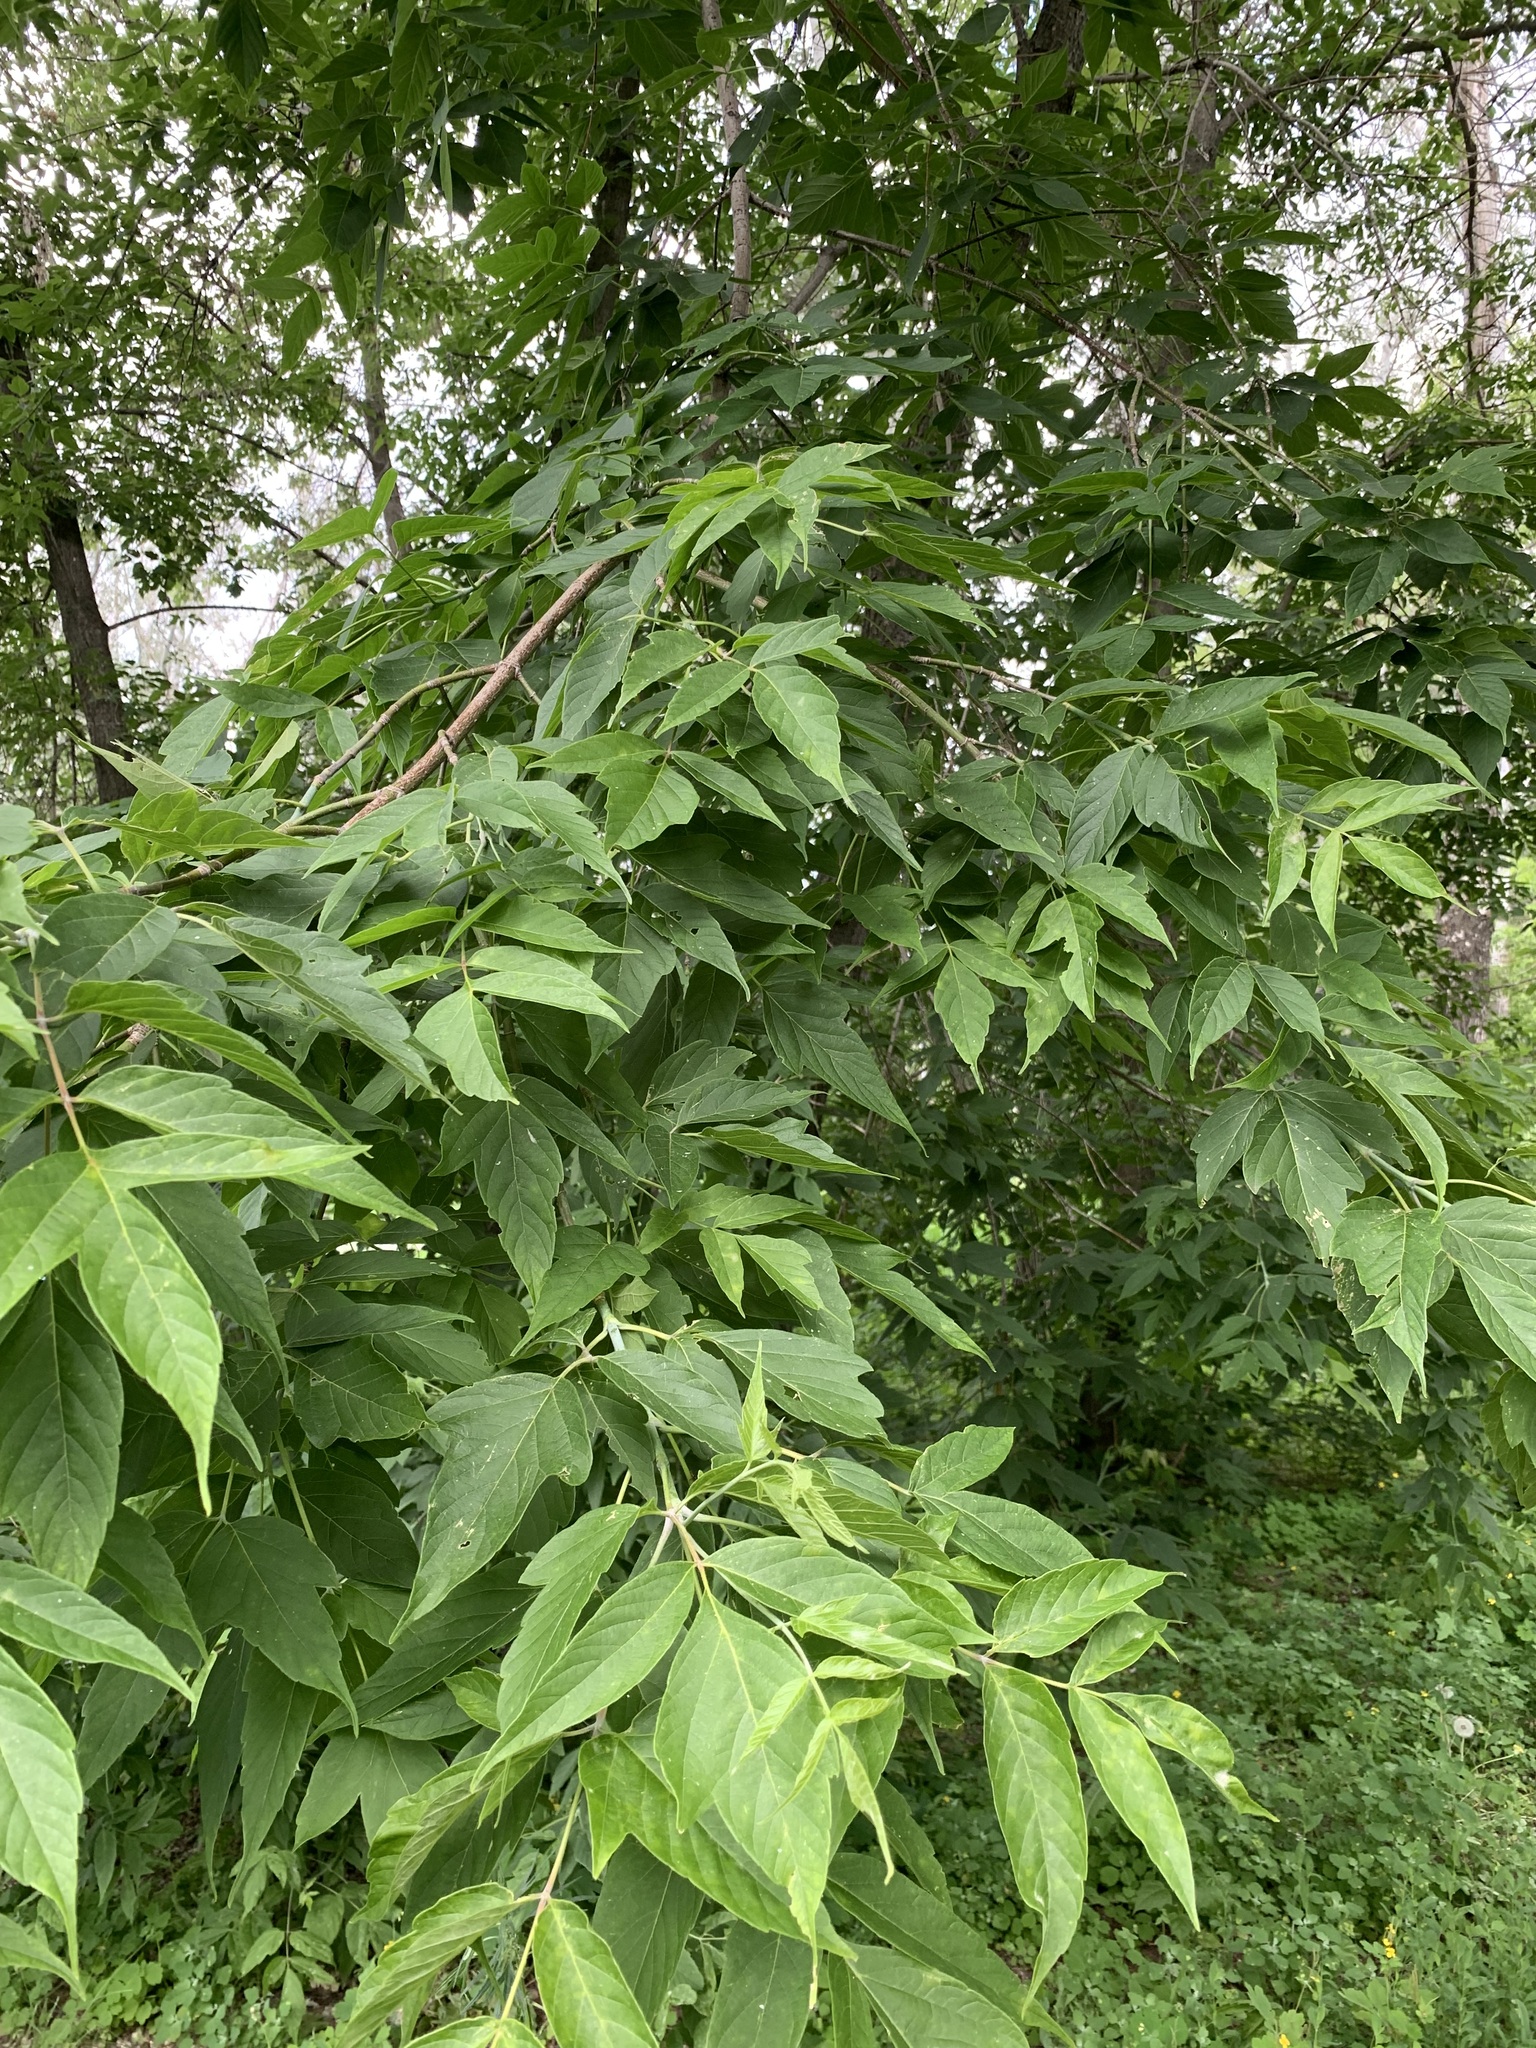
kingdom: Plantae
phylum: Tracheophyta
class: Magnoliopsida
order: Sapindales
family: Sapindaceae
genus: Acer
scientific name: Acer negundo
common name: Ashleaf maple
